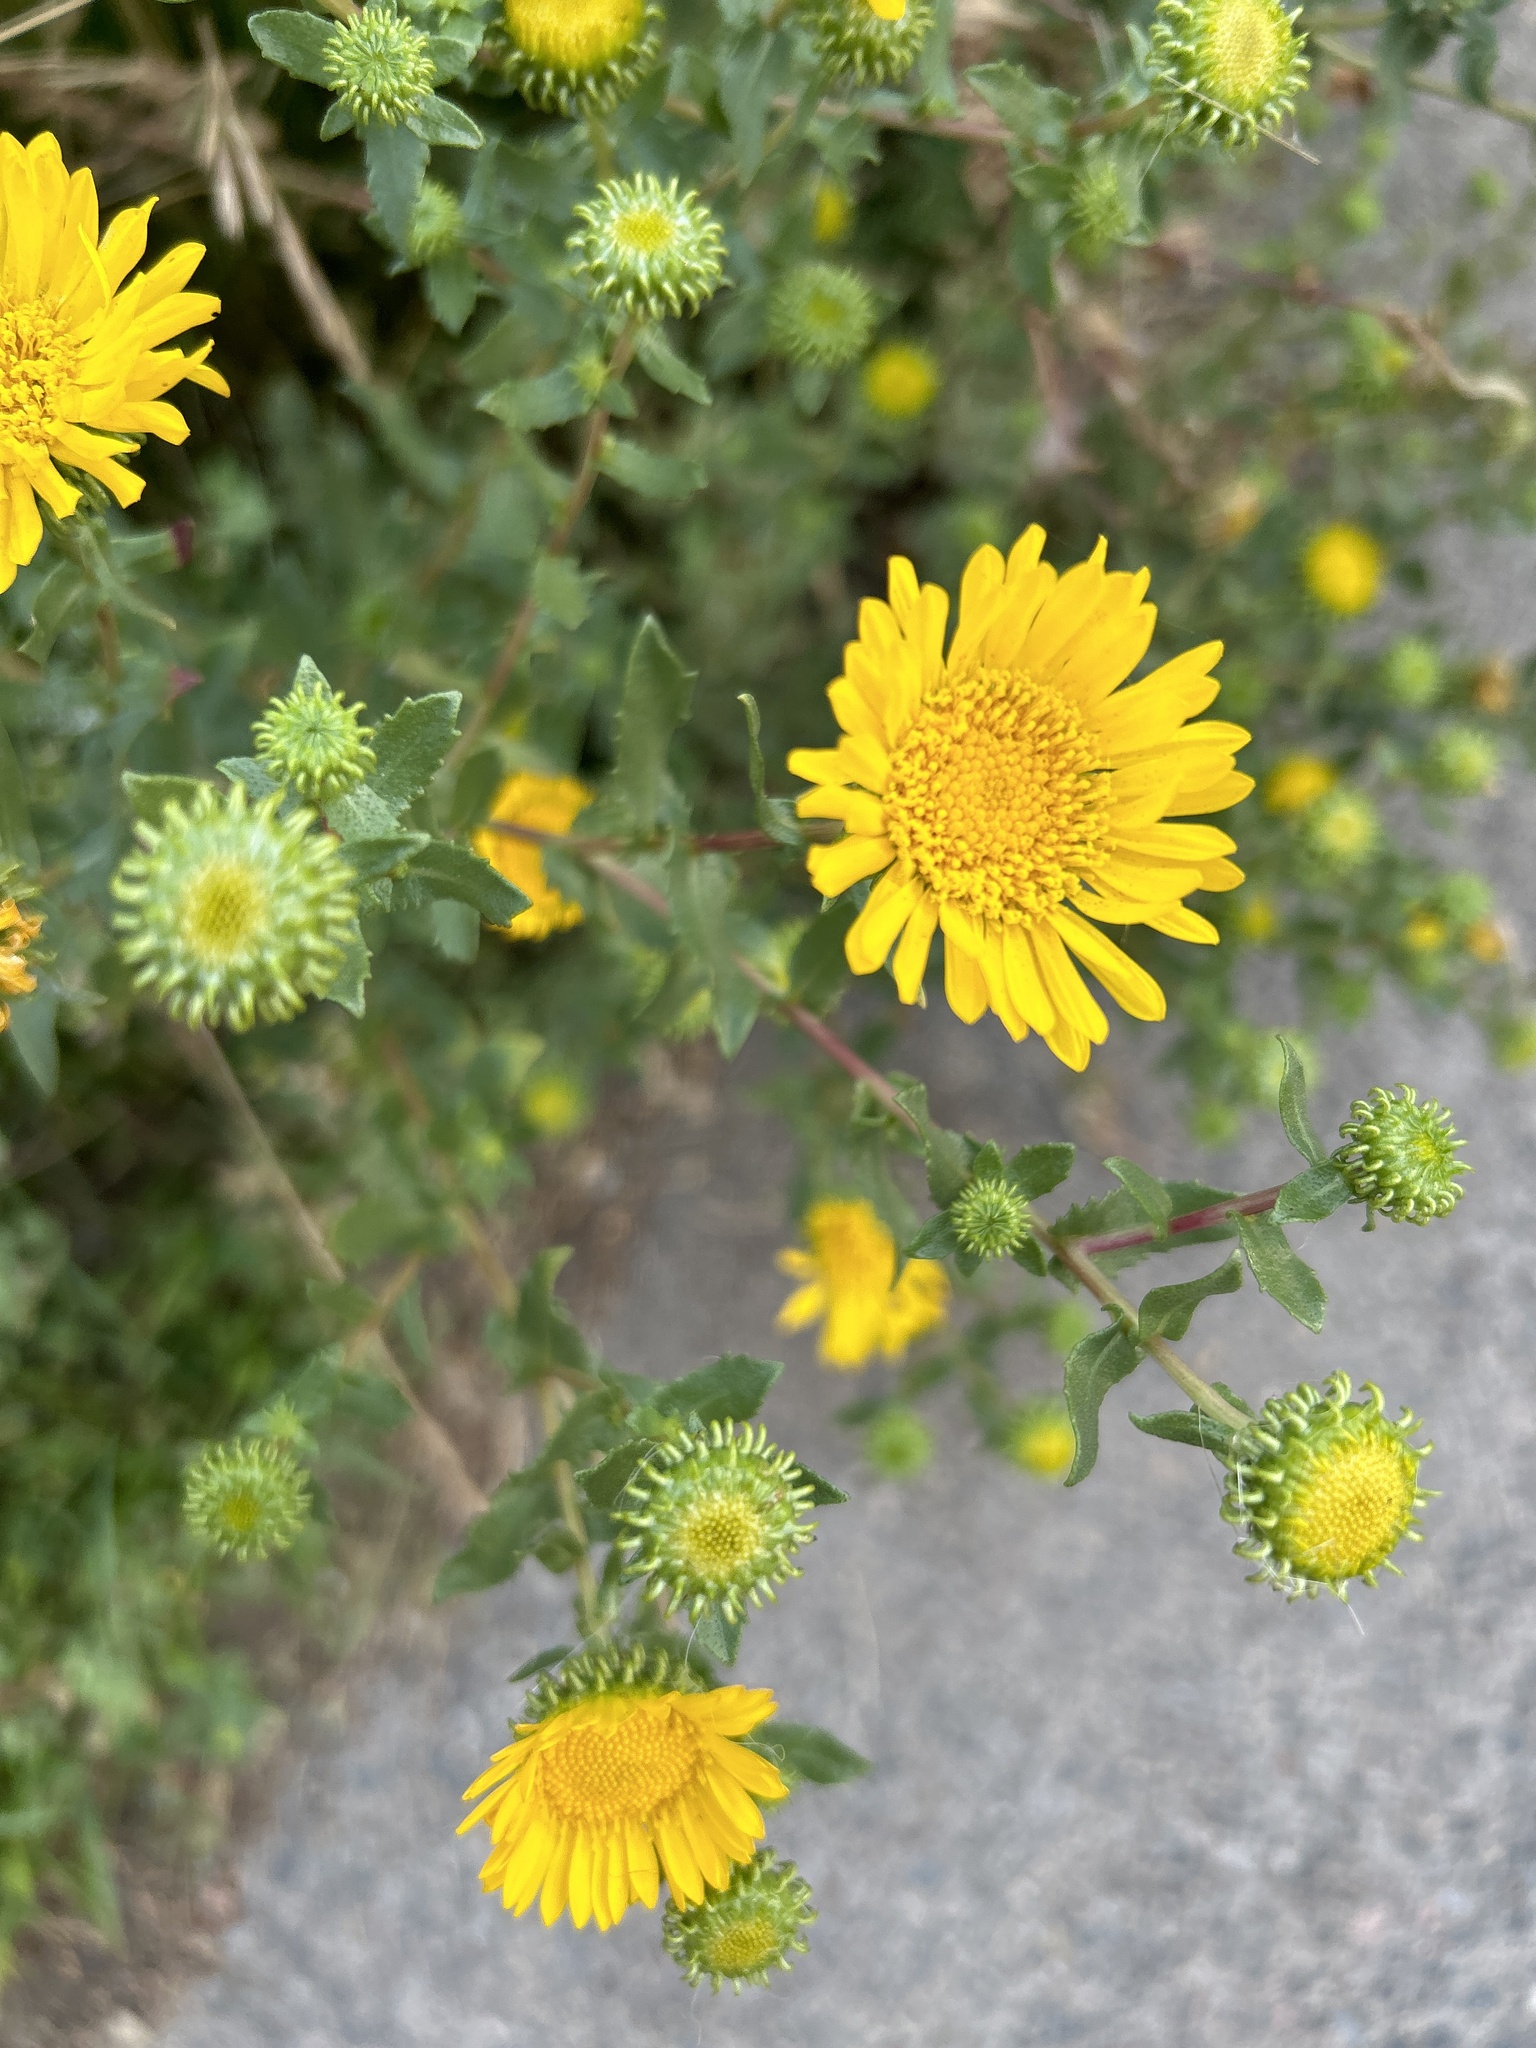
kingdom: Plantae
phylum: Tracheophyta
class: Magnoliopsida
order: Asterales
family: Asteraceae
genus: Grindelia
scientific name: Grindelia squarrosa
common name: Curly-cup gumweed
